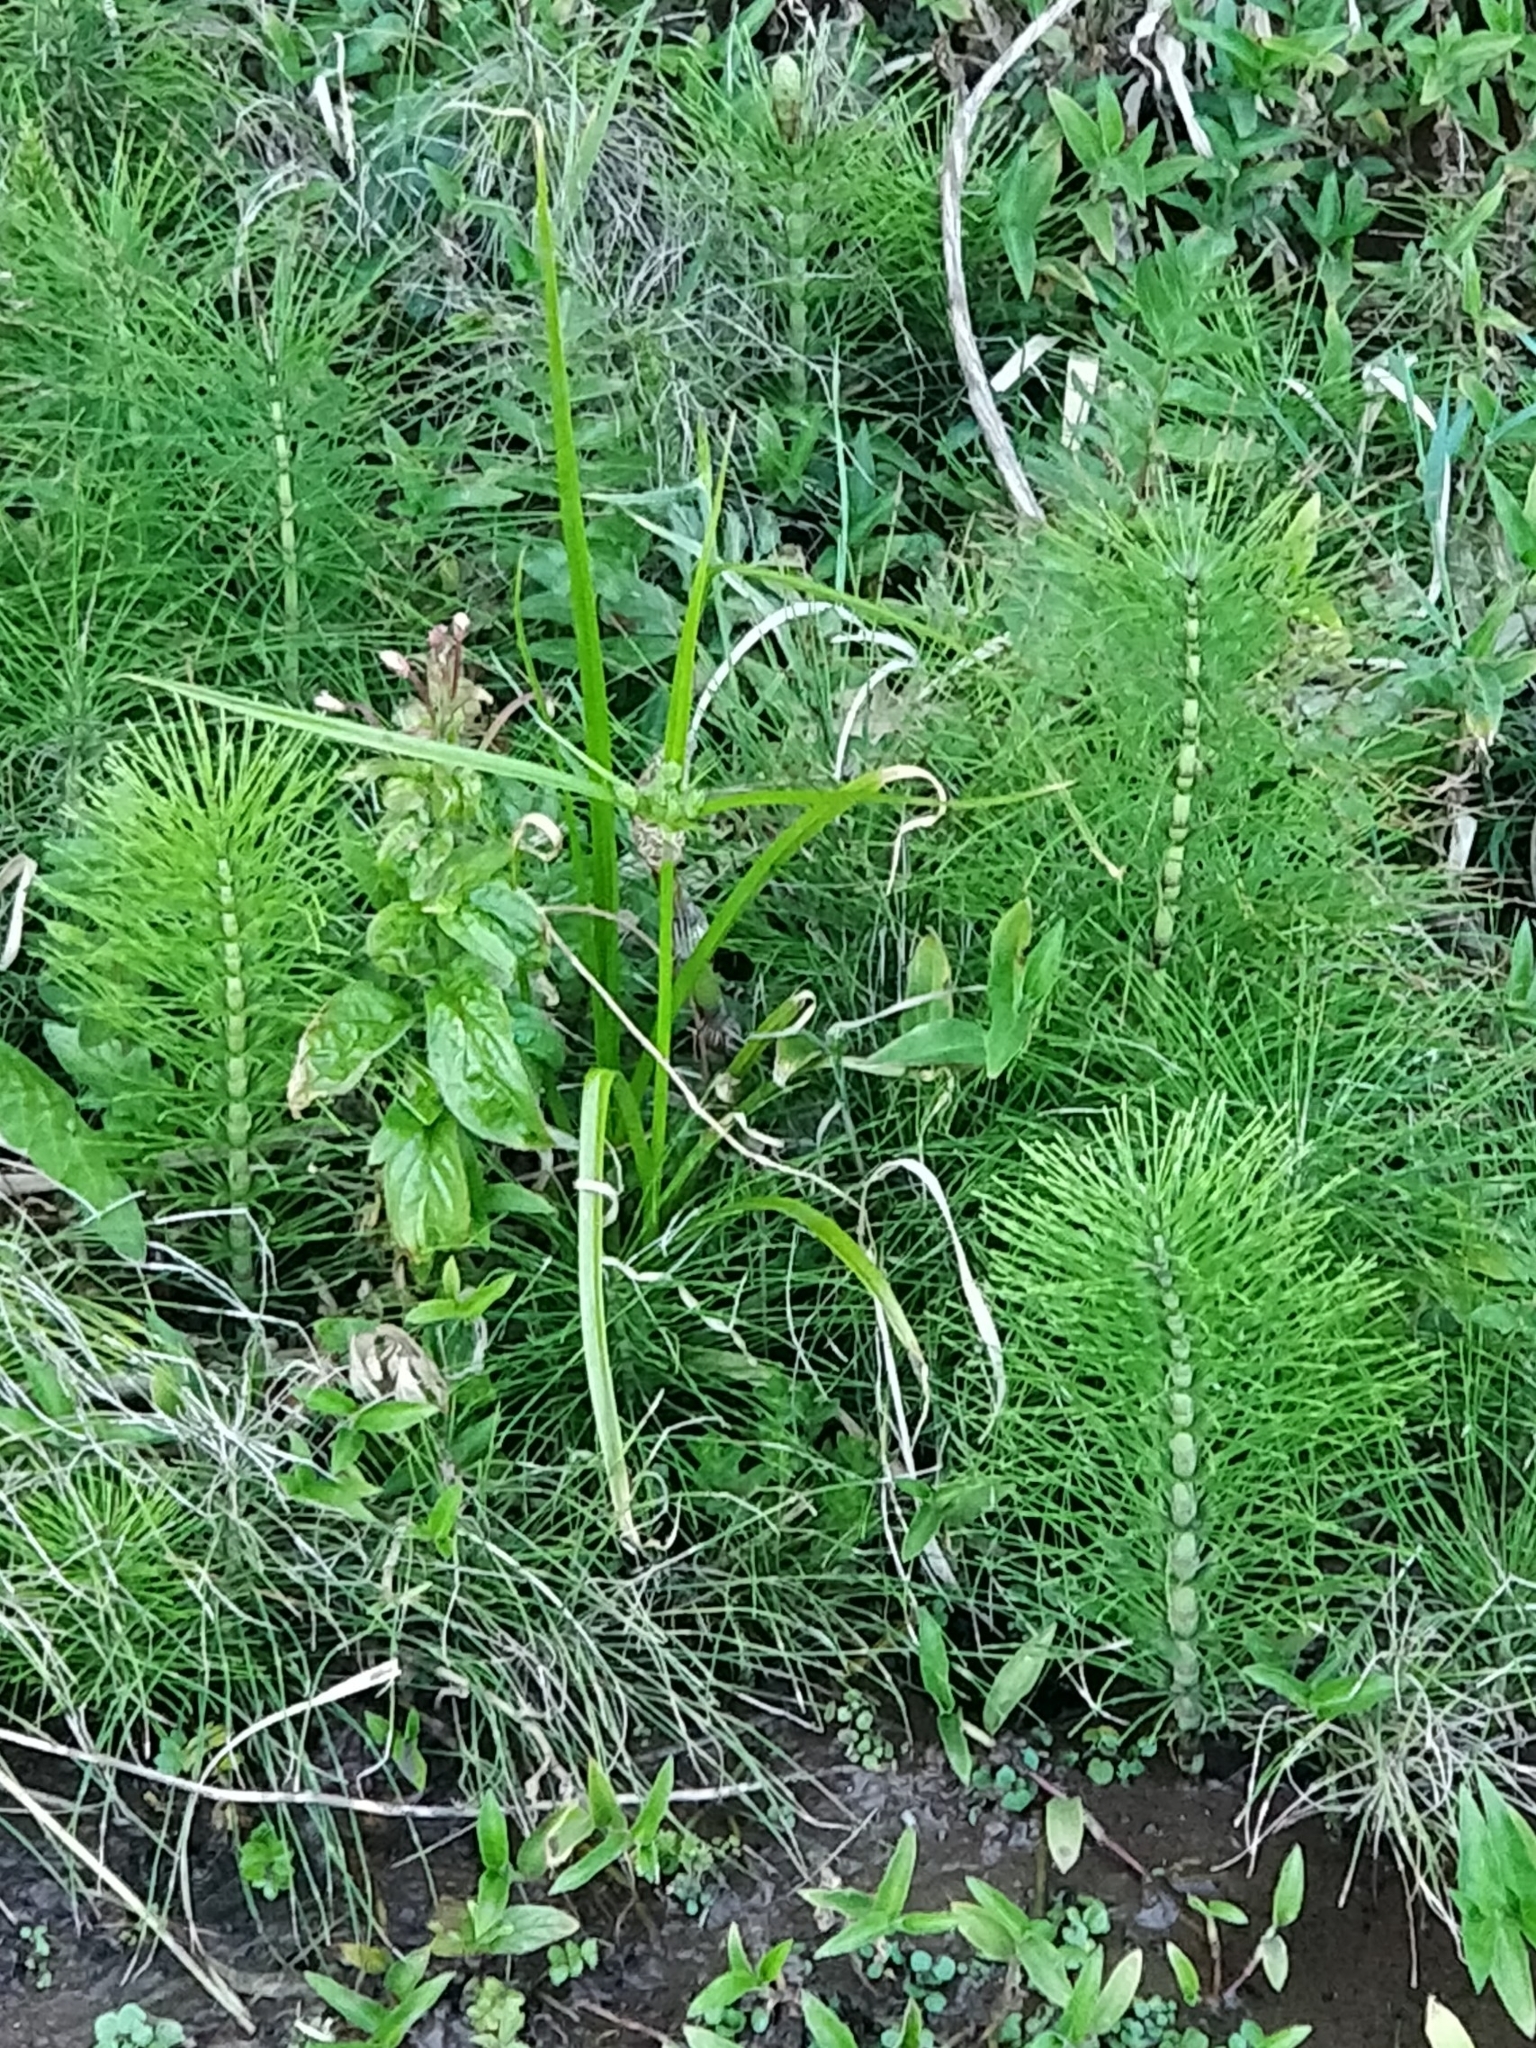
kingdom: Plantae
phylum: Tracheophyta
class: Polypodiopsida
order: Equisetales
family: Equisetaceae
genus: Equisetum
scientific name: Equisetum telmateia
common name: Great horsetail
